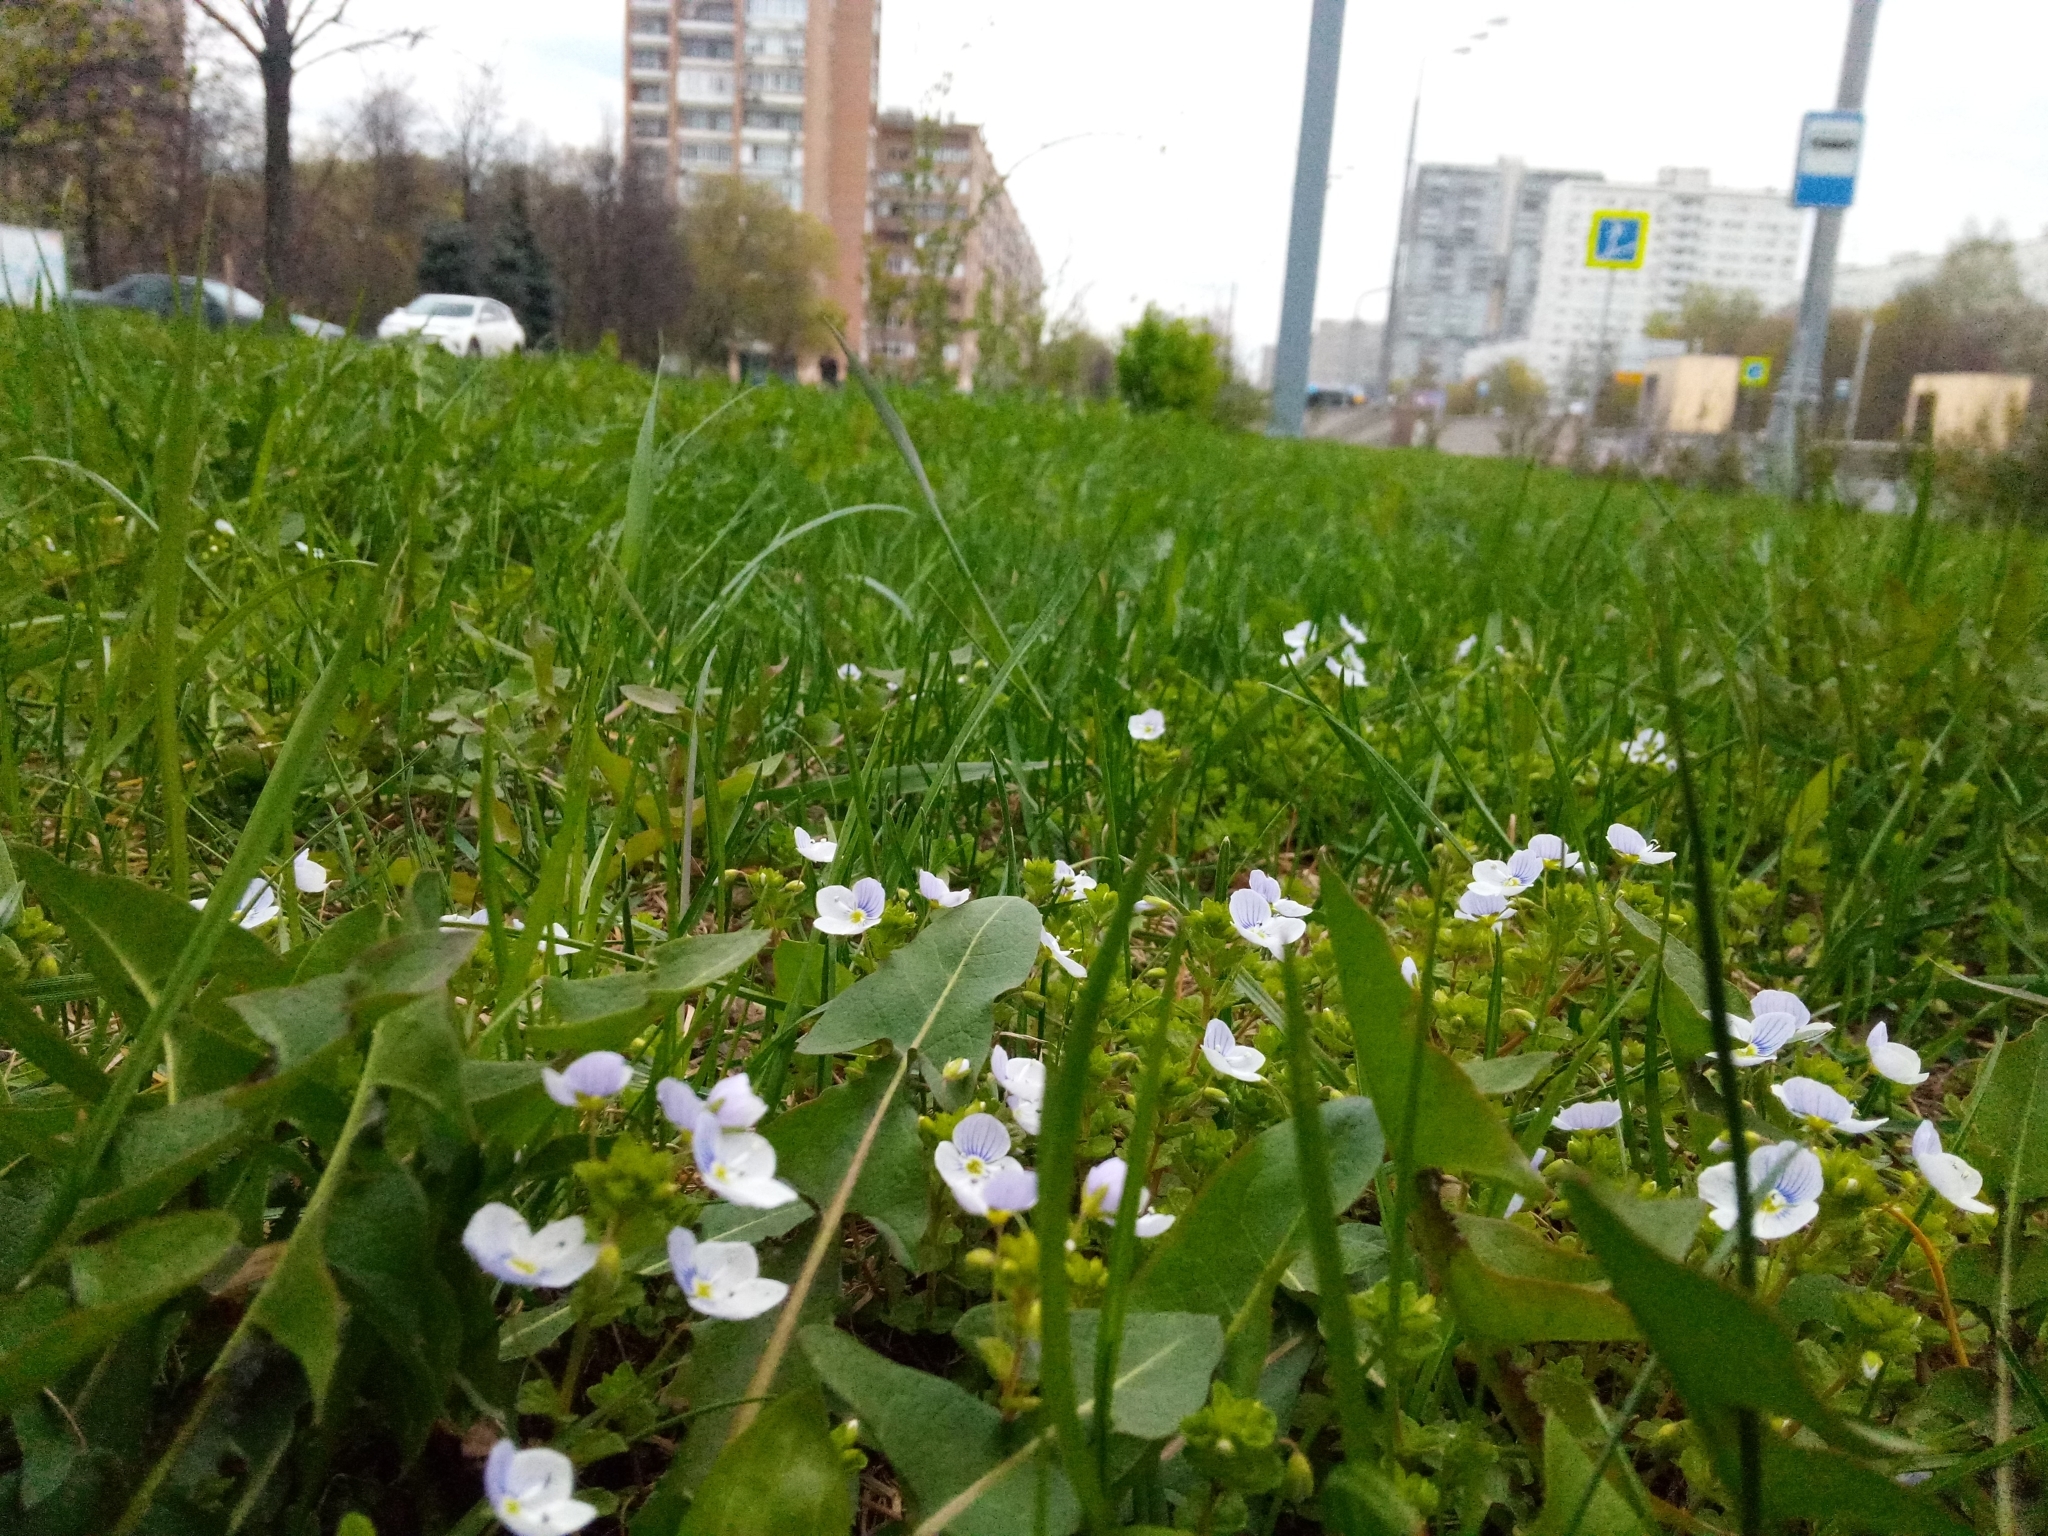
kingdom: Plantae
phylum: Tracheophyta
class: Magnoliopsida
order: Lamiales
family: Plantaginaceae
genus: Veronica
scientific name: Veronica filiformis
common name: Slender speedwell
